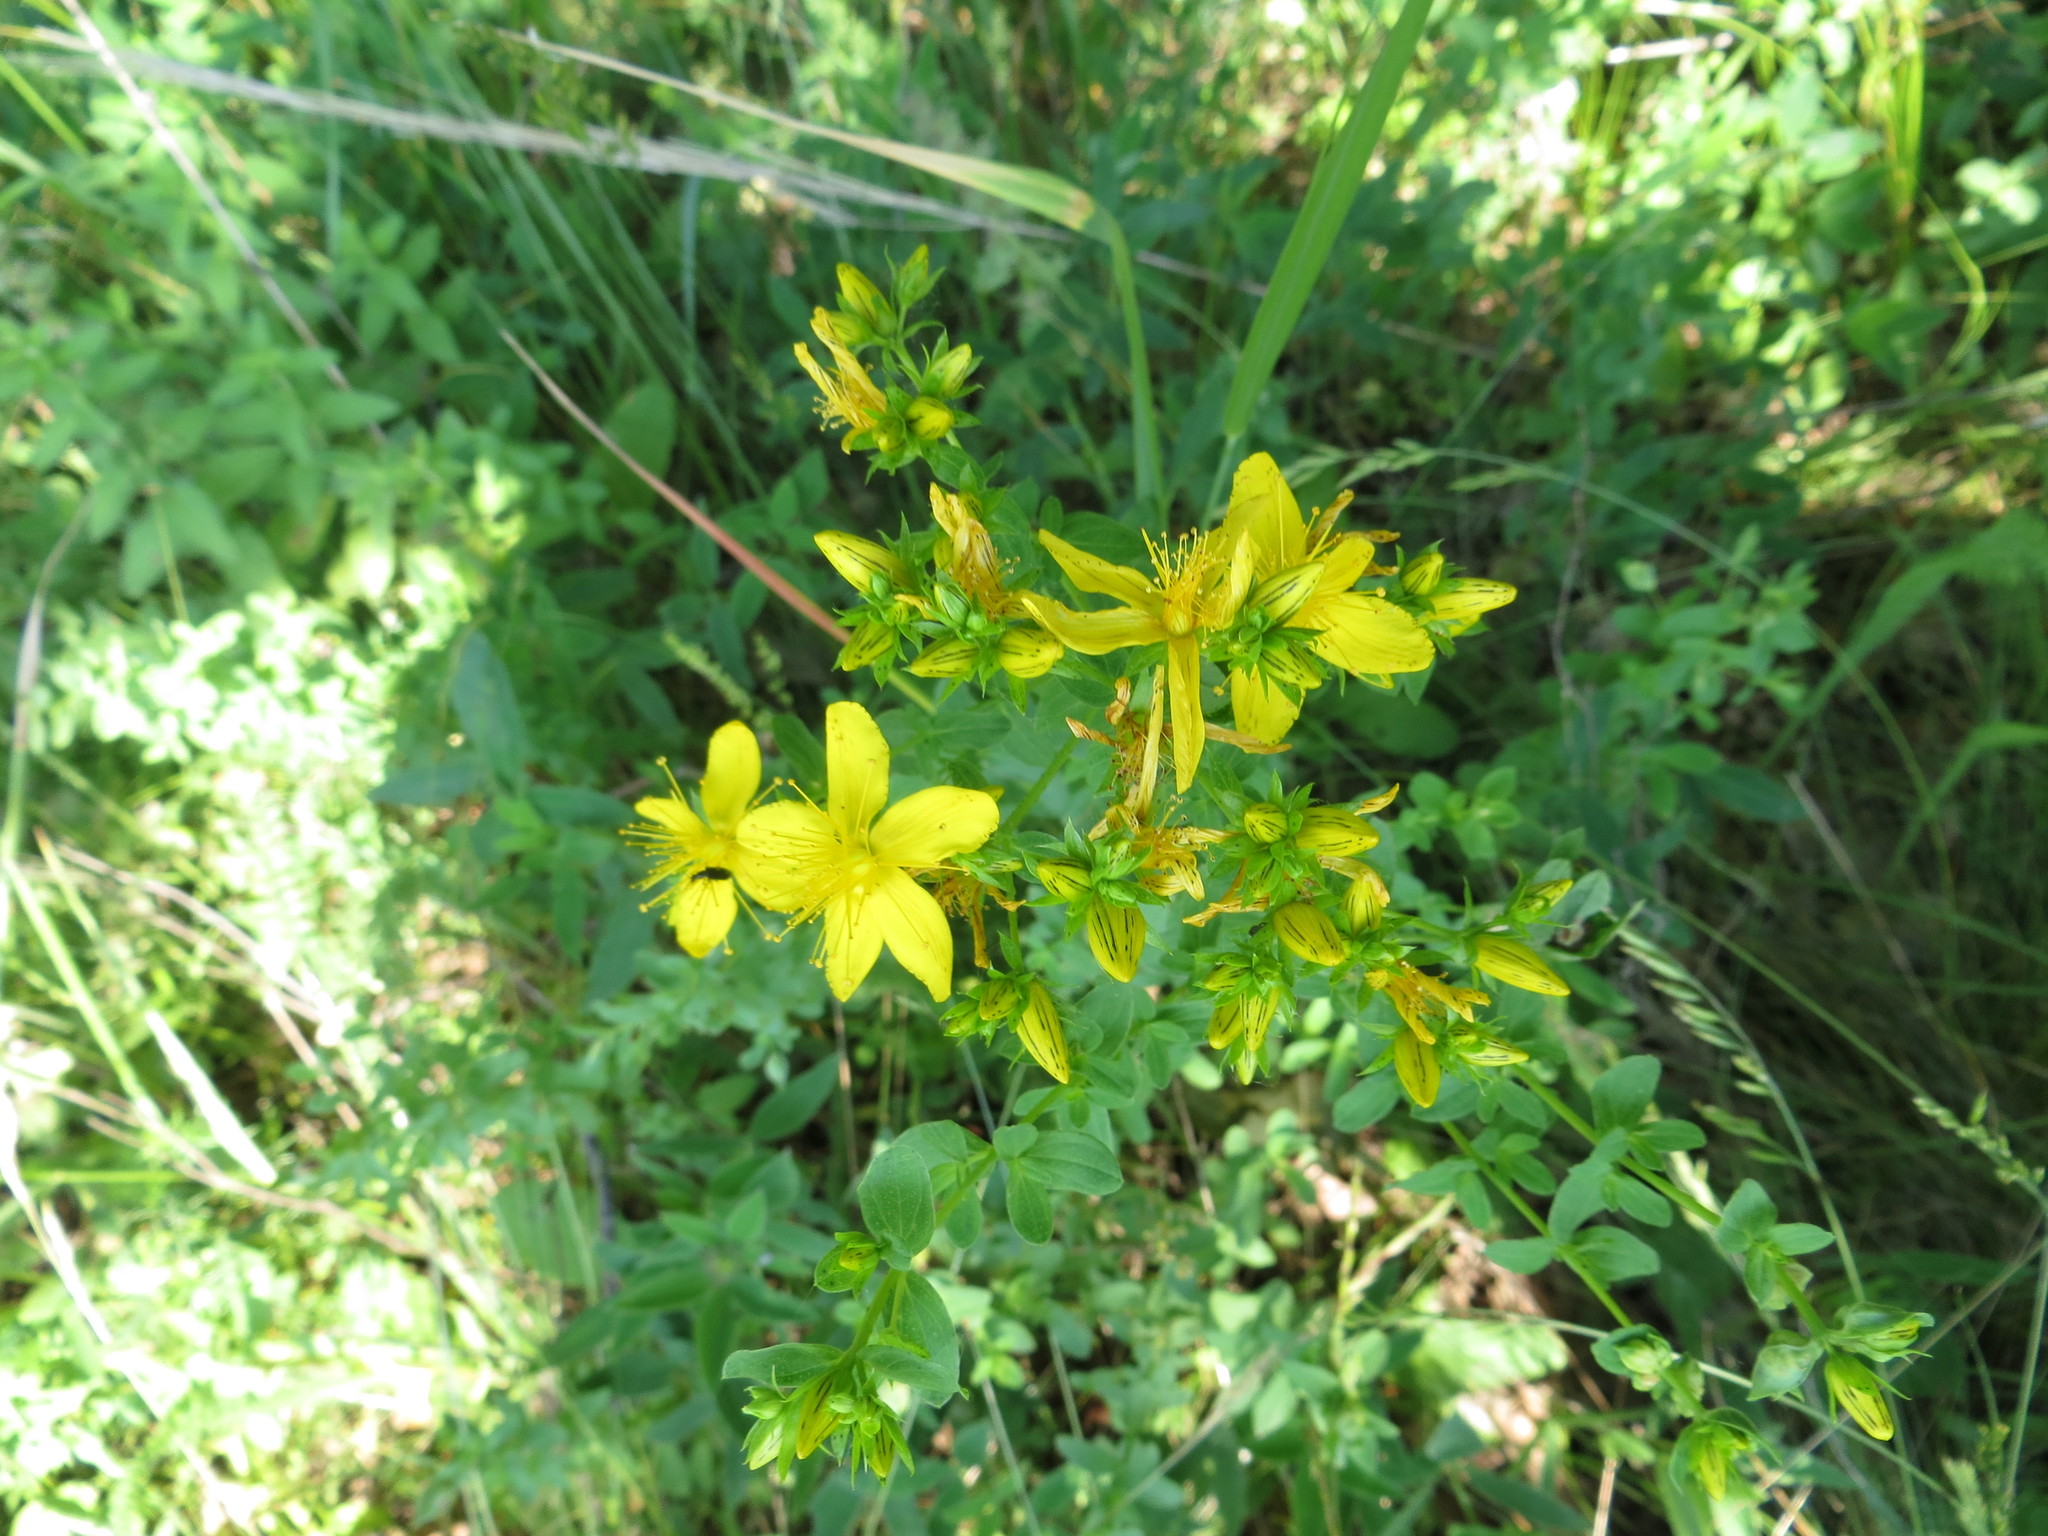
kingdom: Plantae
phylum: Tracheophyta
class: Magnoliopsida
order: Malpighiales
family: Hypericaceae
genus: Hypericum
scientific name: Hypericum perforatum
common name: Common st. johnswort
